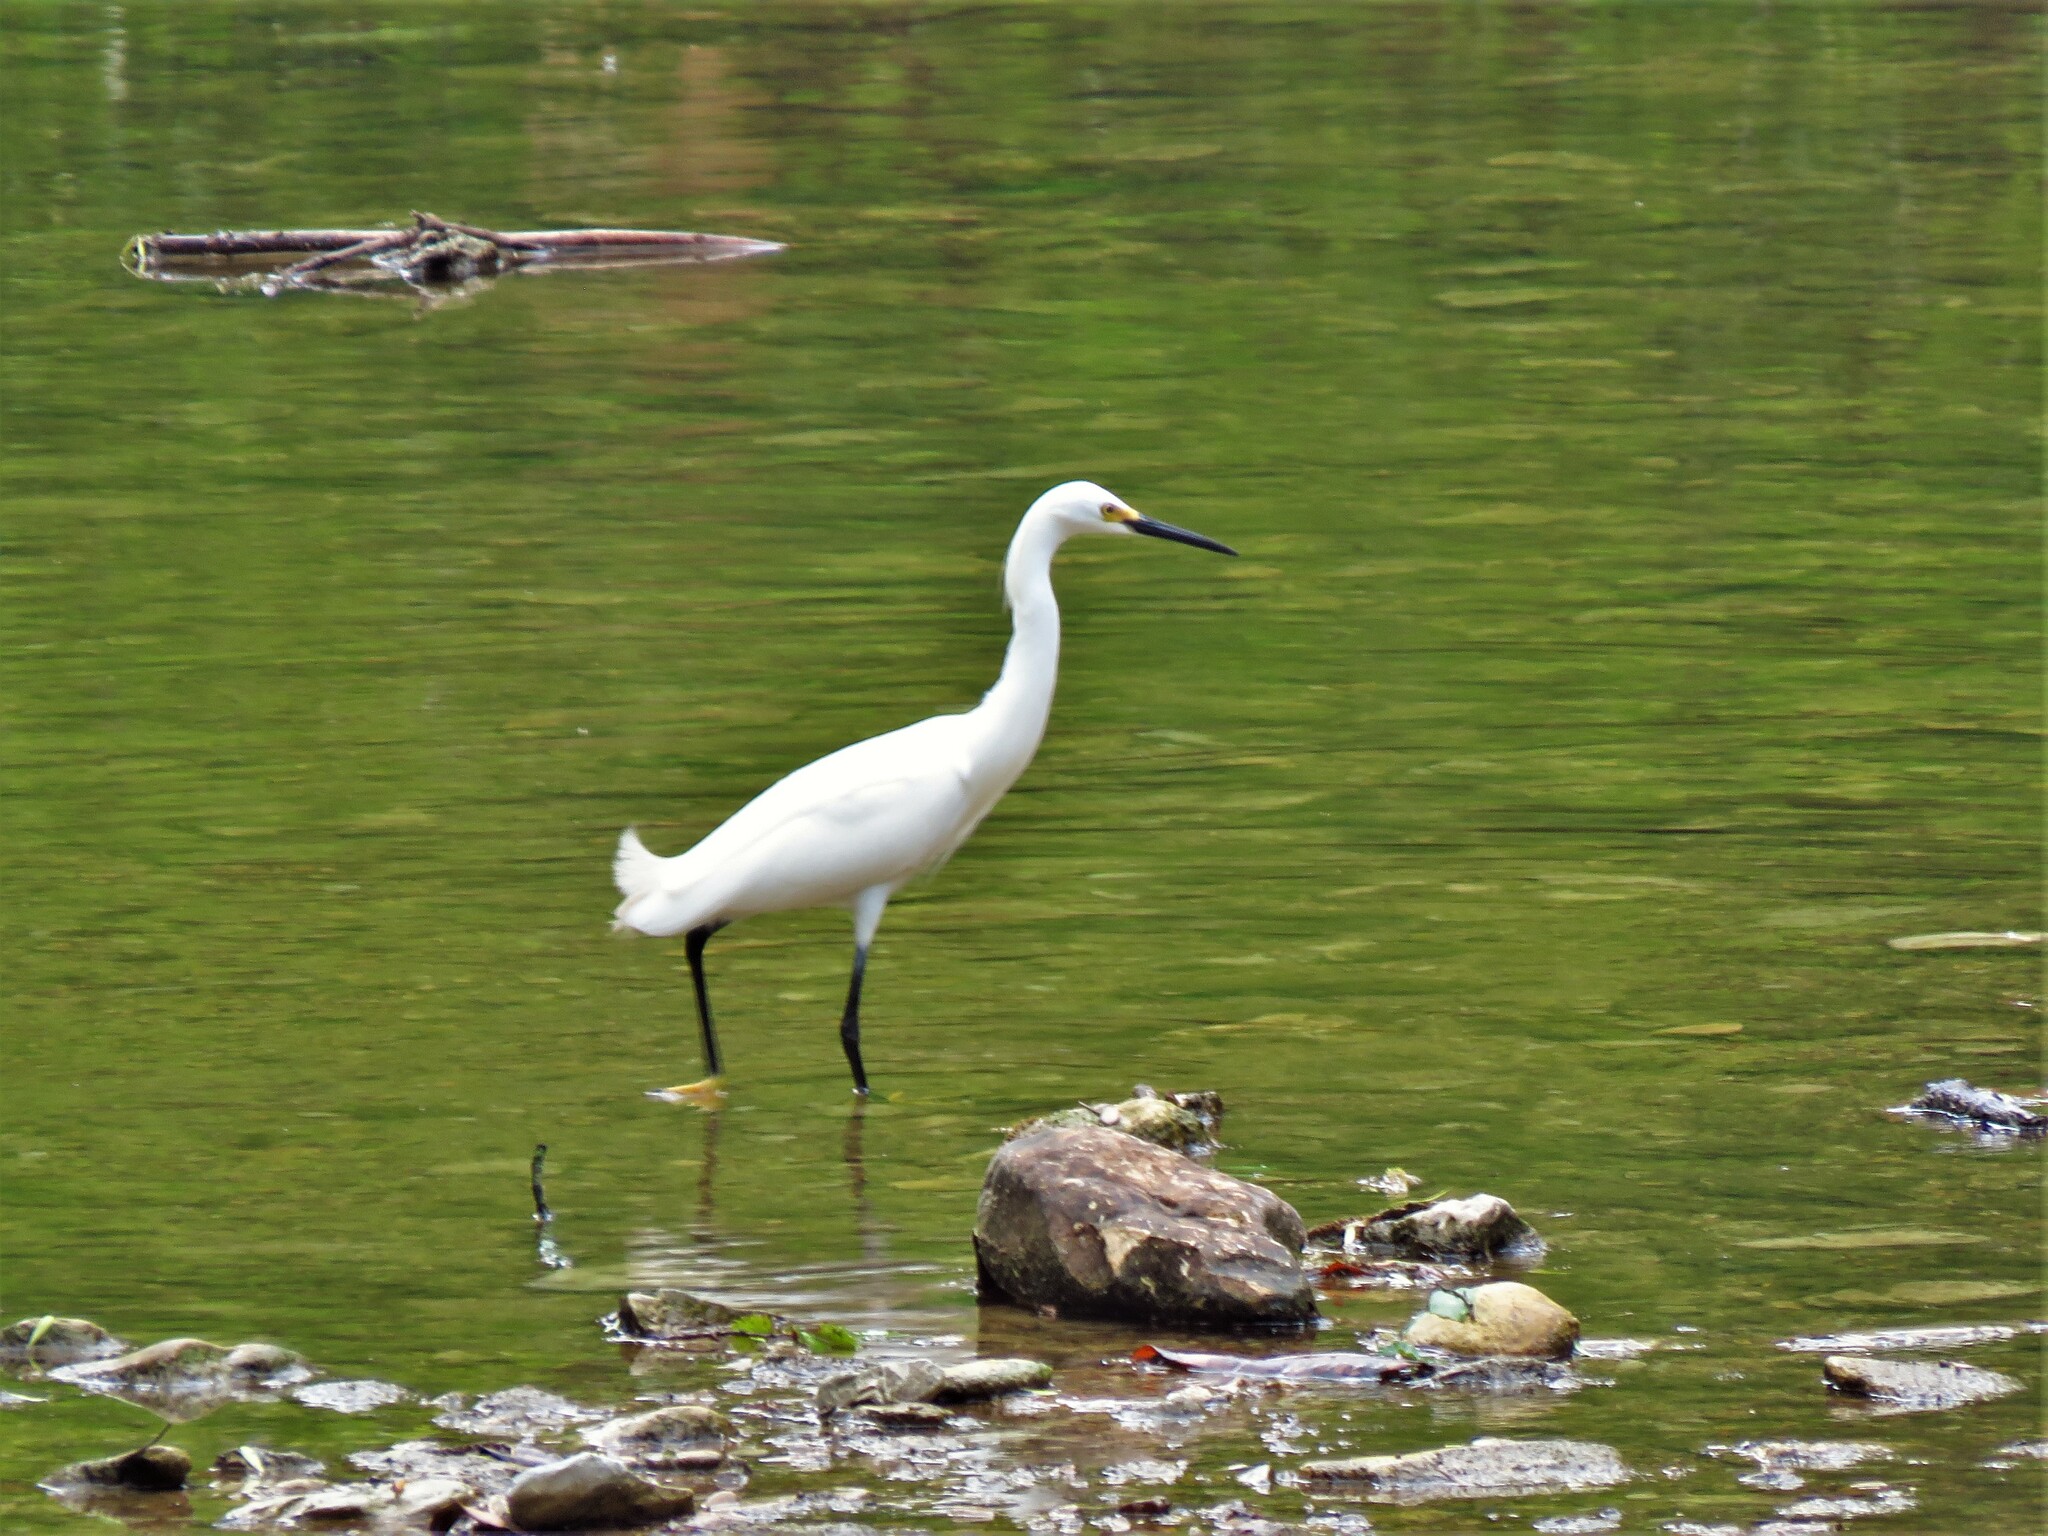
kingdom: Animalia
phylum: Chordata
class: Aves
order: Pelecaniformes
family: Ardeidae
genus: Egretta
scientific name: Egretta thula
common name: Snowy egret
